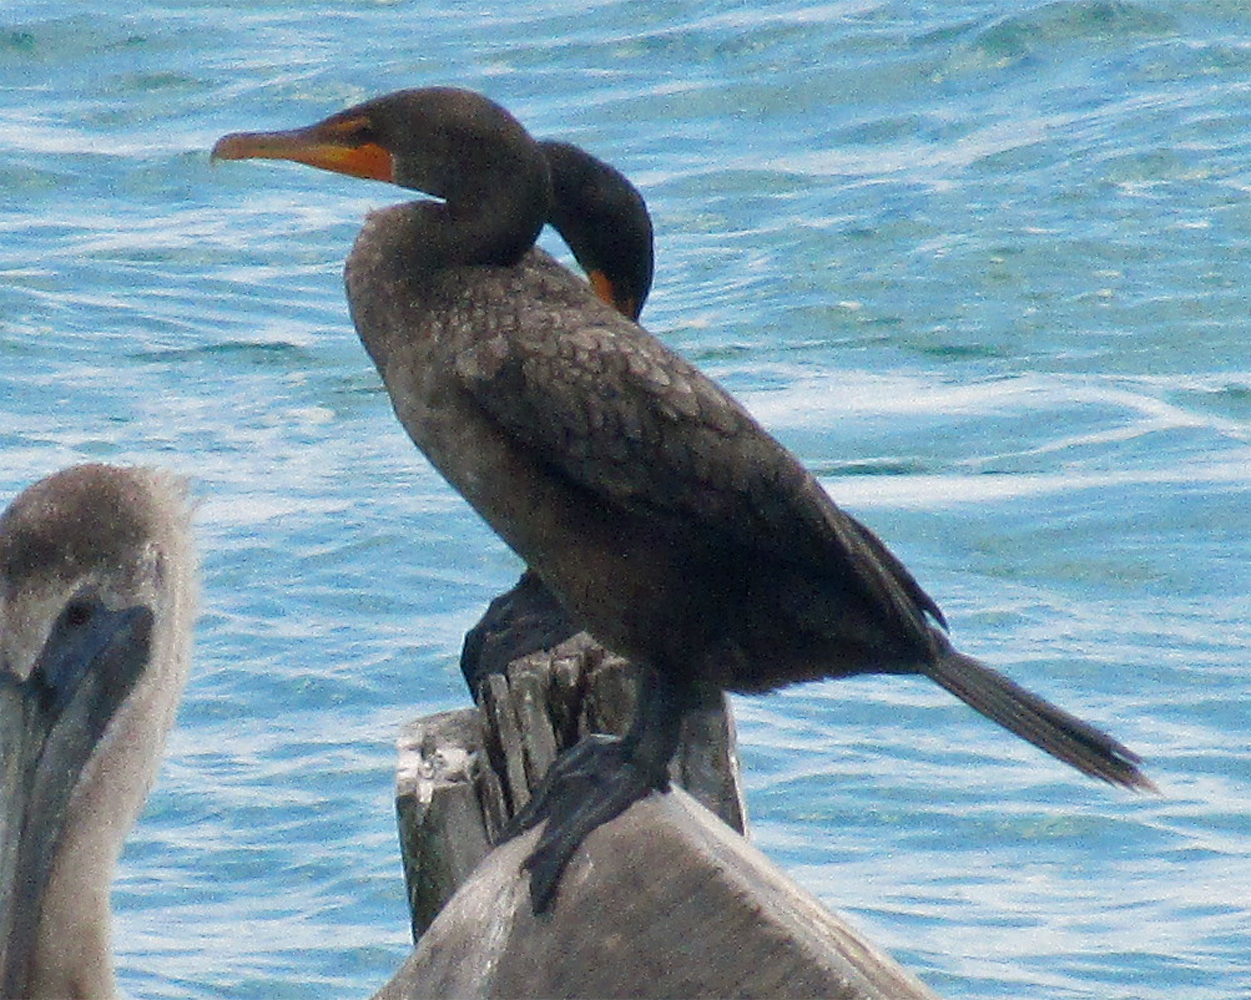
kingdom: Animalia
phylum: Chordata
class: Aves
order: Suliformes
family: Phalacrocoracidae
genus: Phalacrocorax
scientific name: Phalacrocorax auritus
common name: Double-crested cormorant
